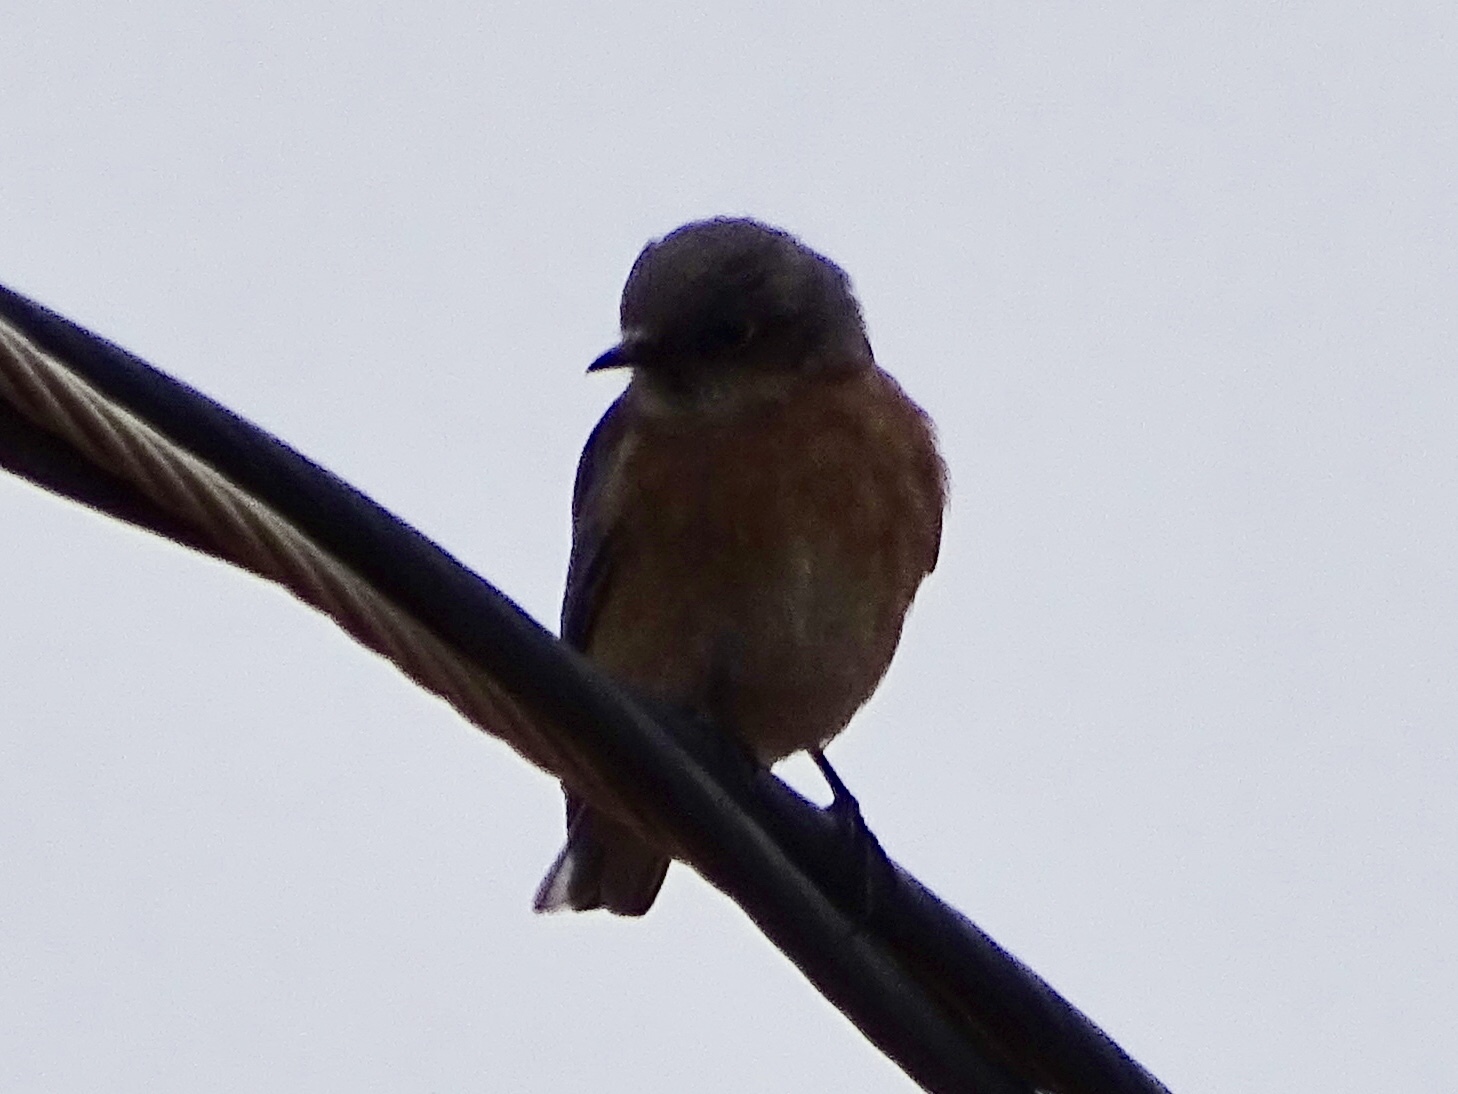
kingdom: Animalia
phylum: Chordata
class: Aves
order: Passeriformes
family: Turdidae
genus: Sialia
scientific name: Sialia mexicana
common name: Western bluebird
